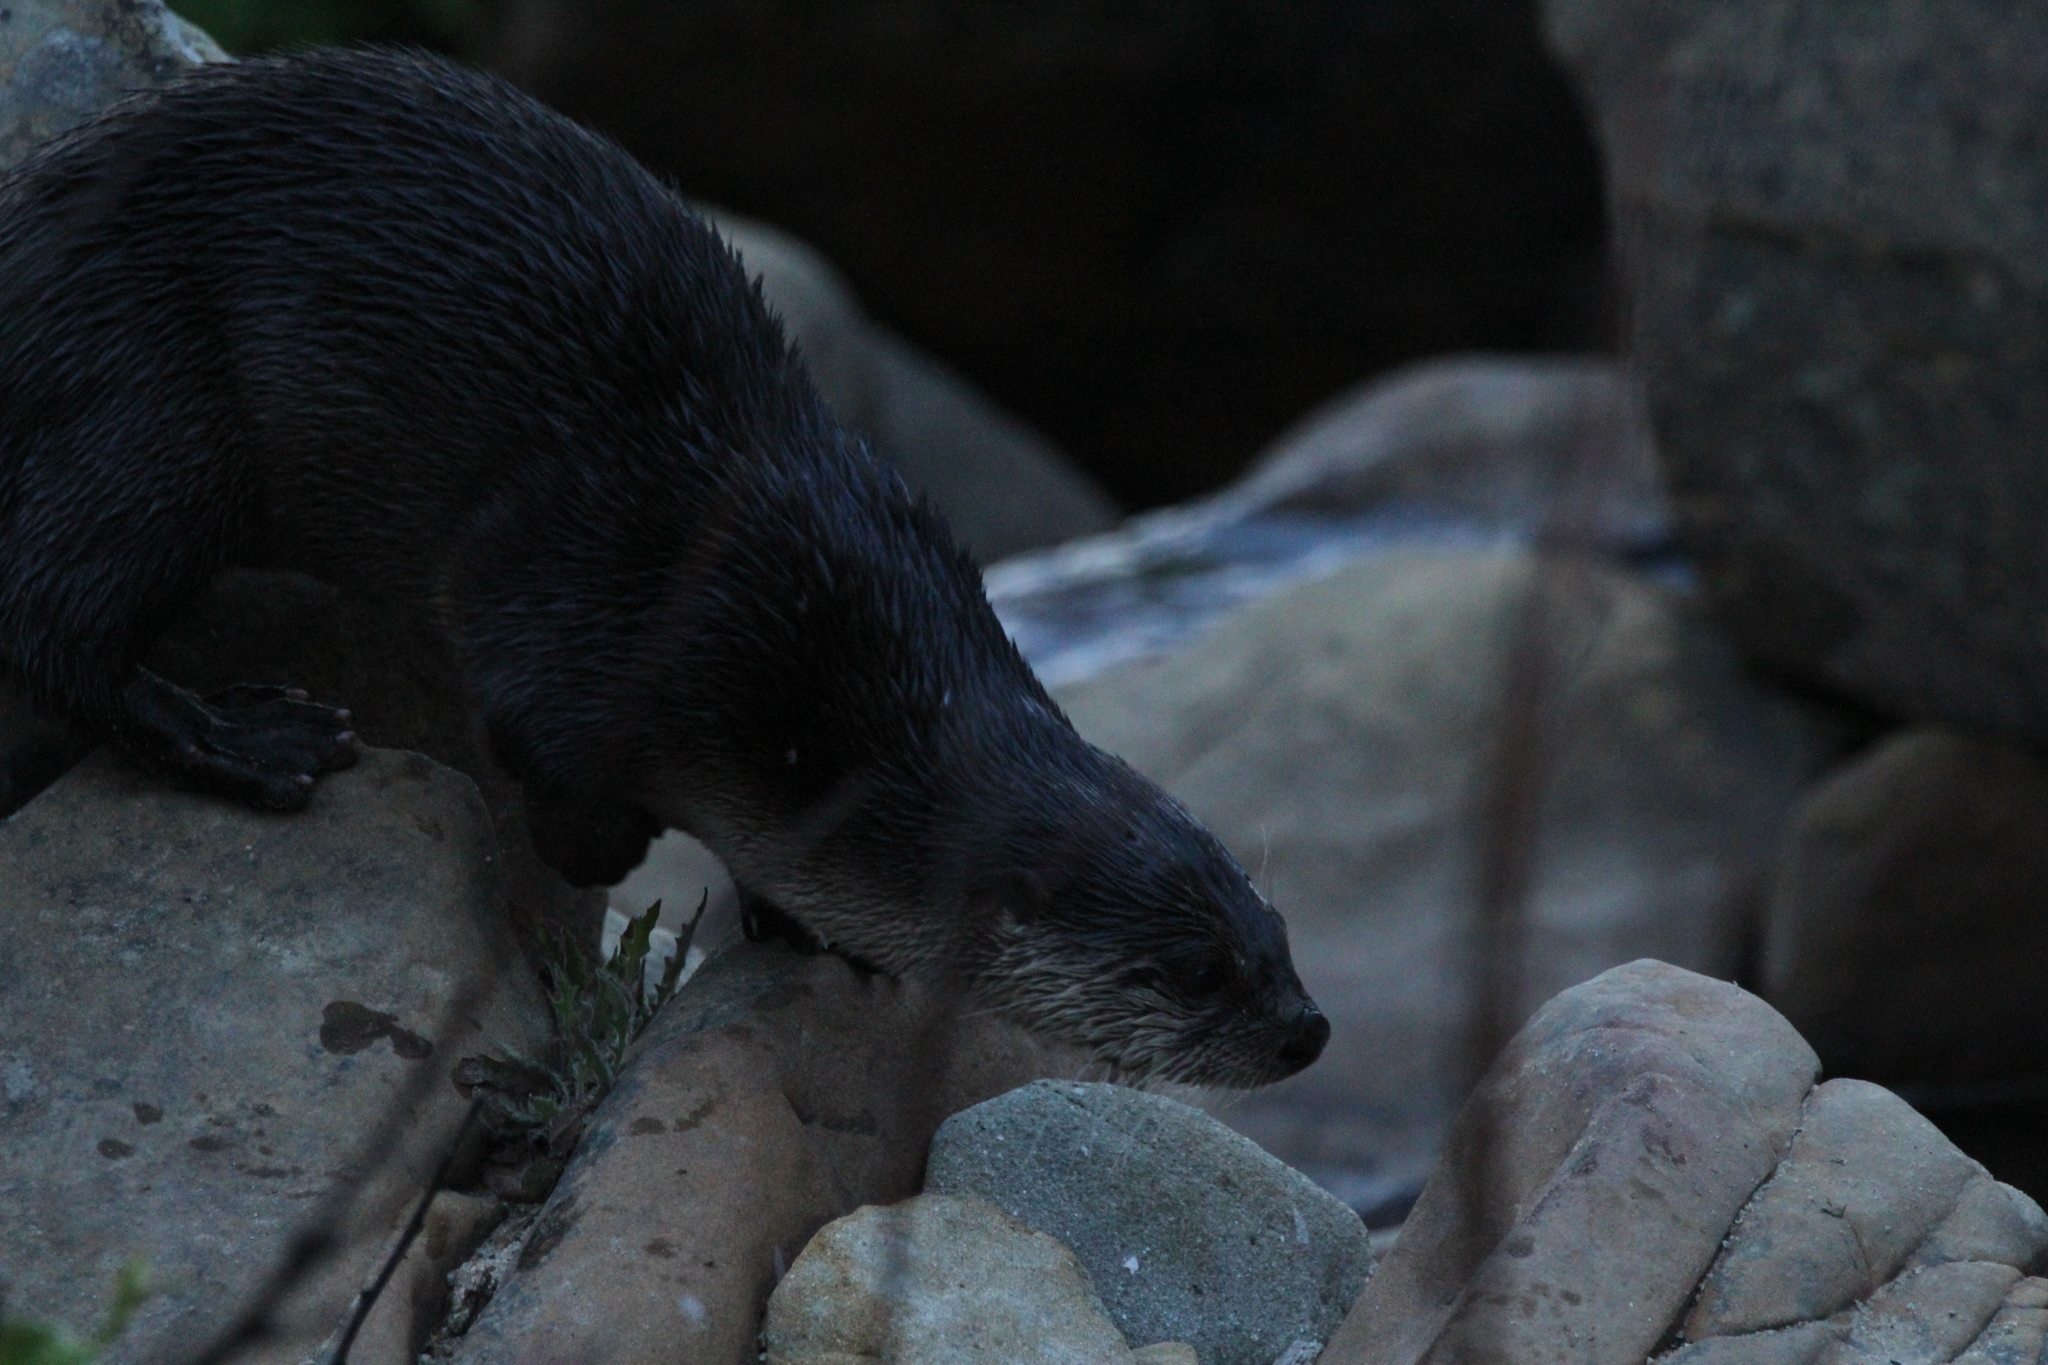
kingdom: Animalia
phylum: Chordata
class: Mammalia
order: Carnivora
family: Mustelidae
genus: Lontra
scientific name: Lontra canadensis
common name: North american river otter
